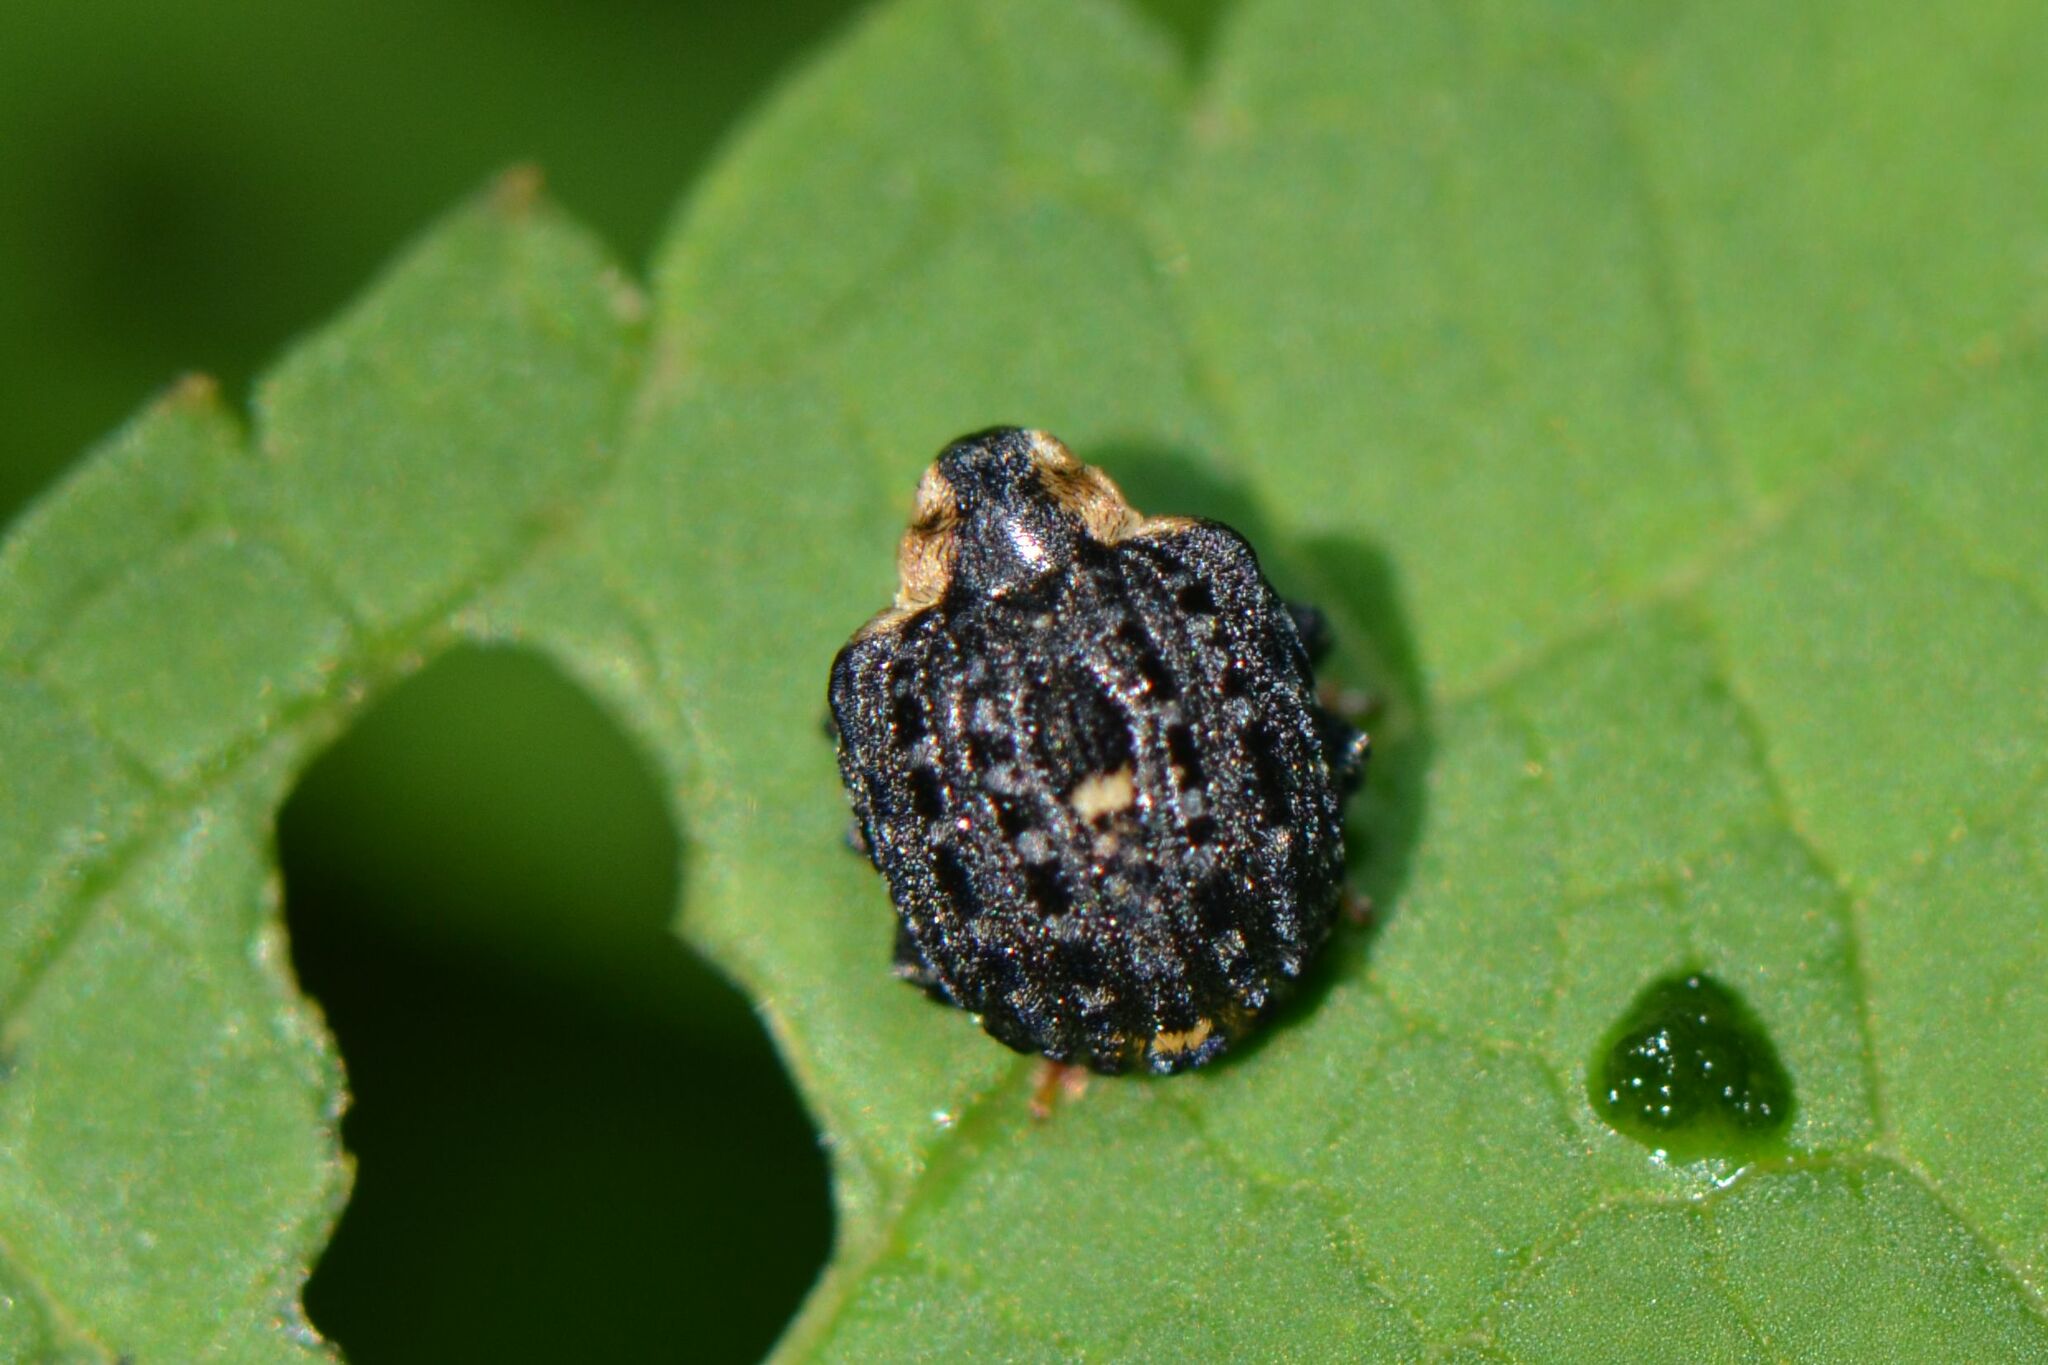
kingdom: Animalia
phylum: Arthropoda
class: Insecta
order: Coleoptera
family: Curculionidae
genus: Cionus
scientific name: Cionus tuberculosus
